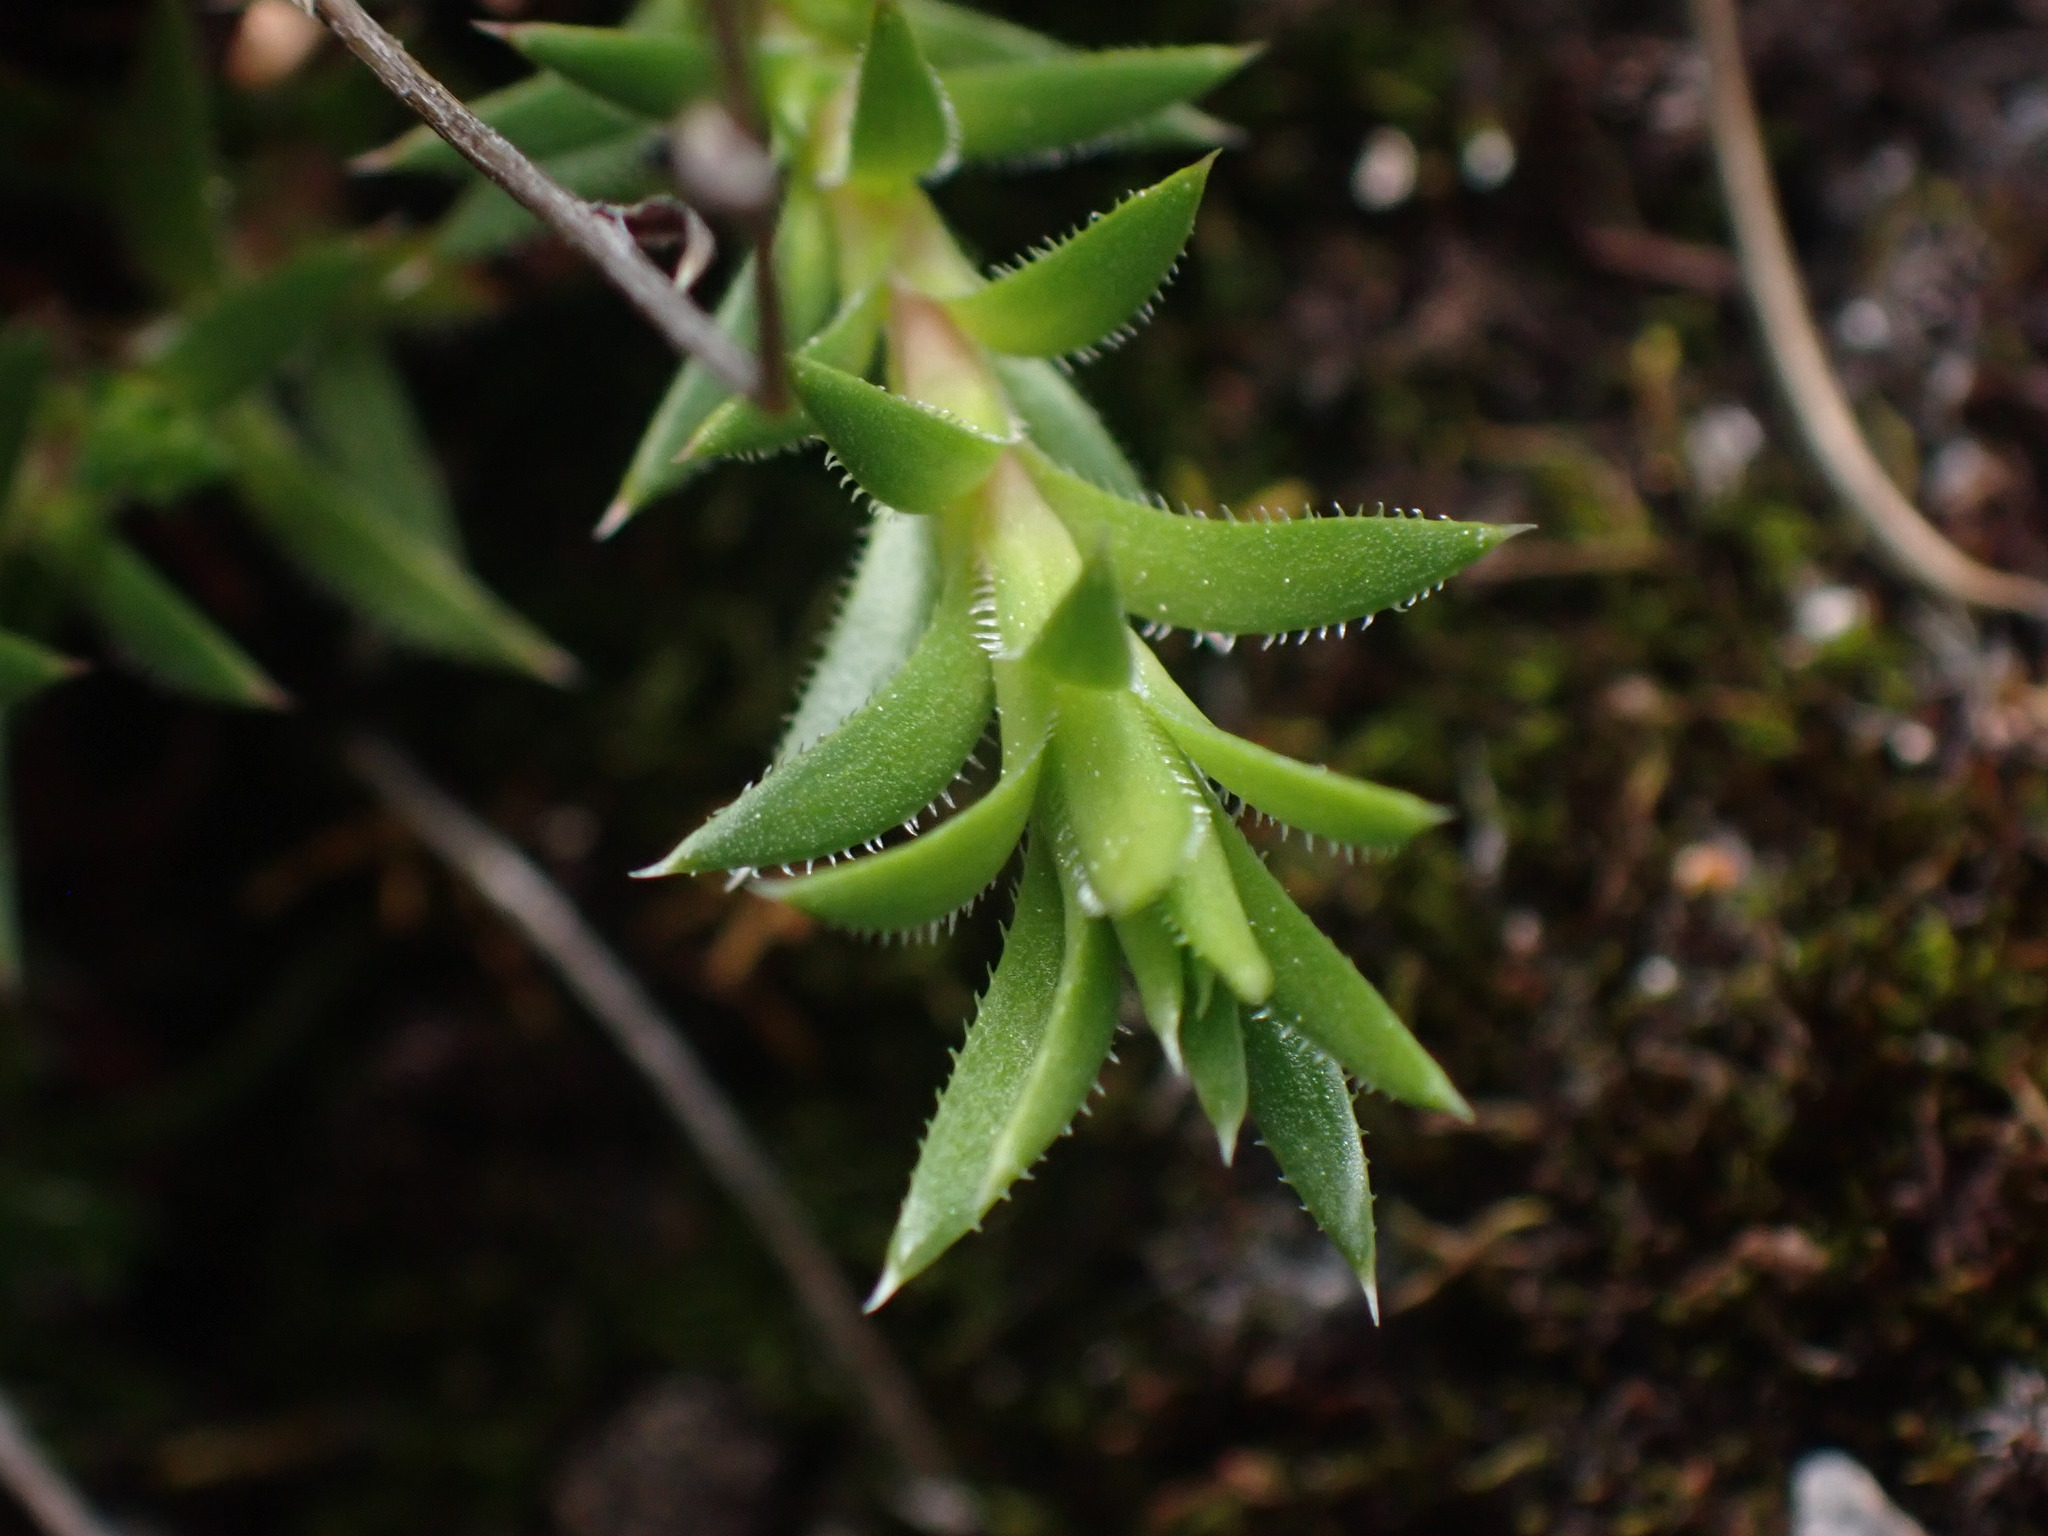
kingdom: Plantae
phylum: Tracheophyta
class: Magnoliopsida
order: Saxifragales
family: Saxifragaceae
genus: Saxifraga
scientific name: Saxifraga bronchialis
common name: Matted saxifrage
